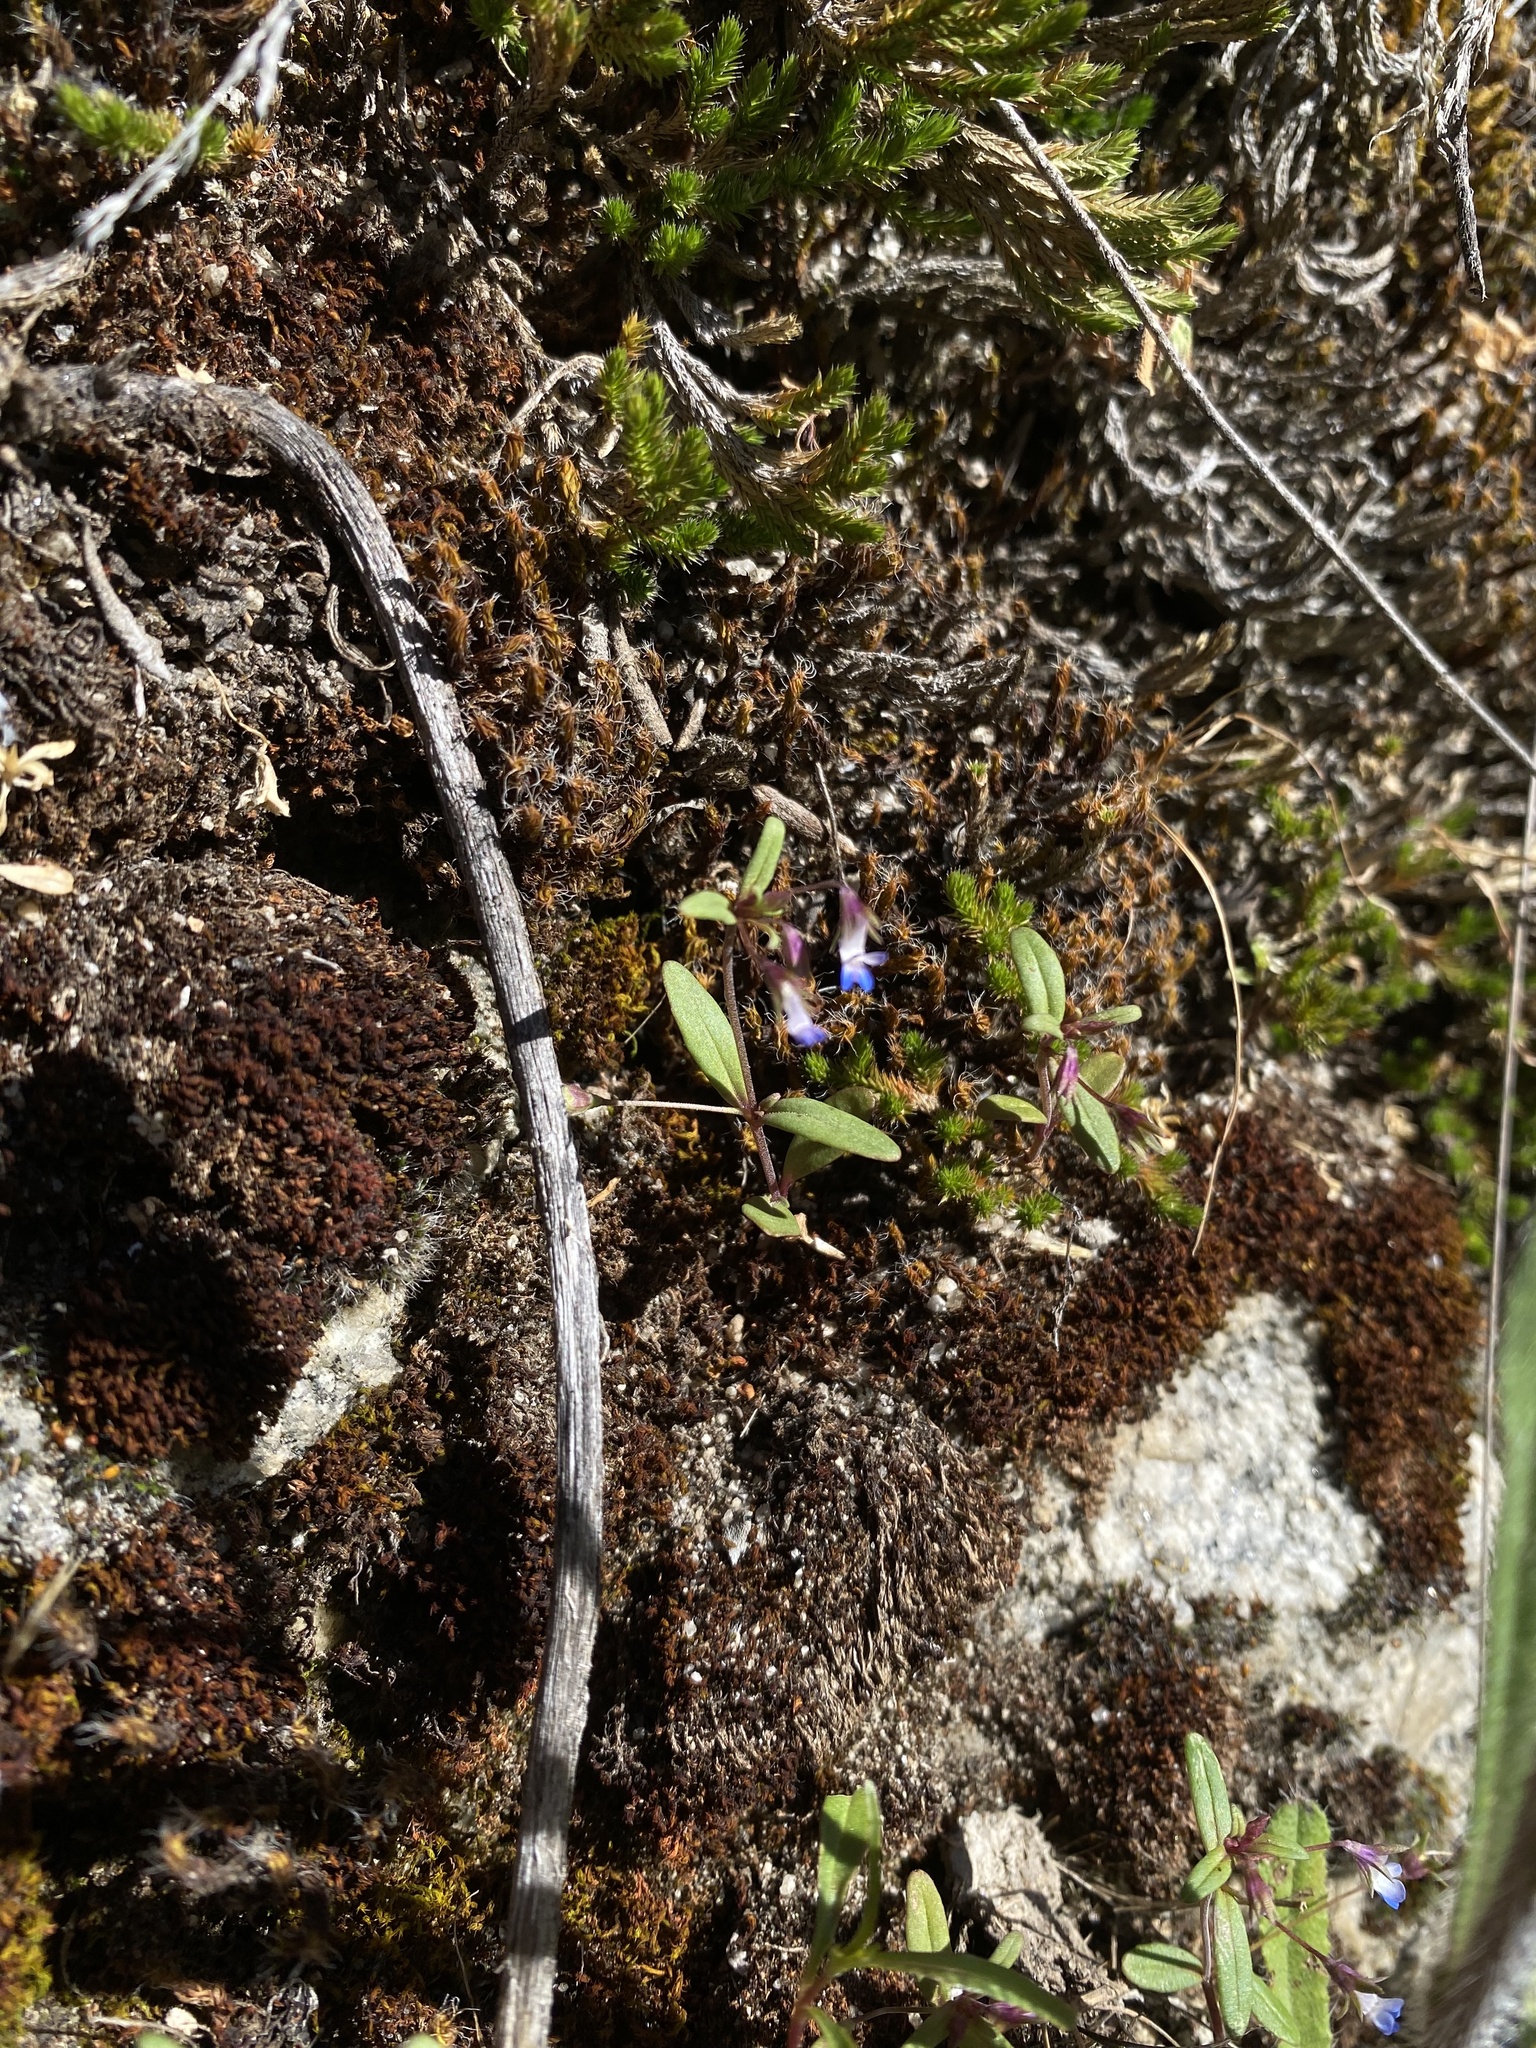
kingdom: Plantae
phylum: Tracheophyta
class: Magnoliopsida
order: Lamiales
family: Plantaginaceae
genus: Collinsia
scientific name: Collinsia parviflora
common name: Blue-lips
